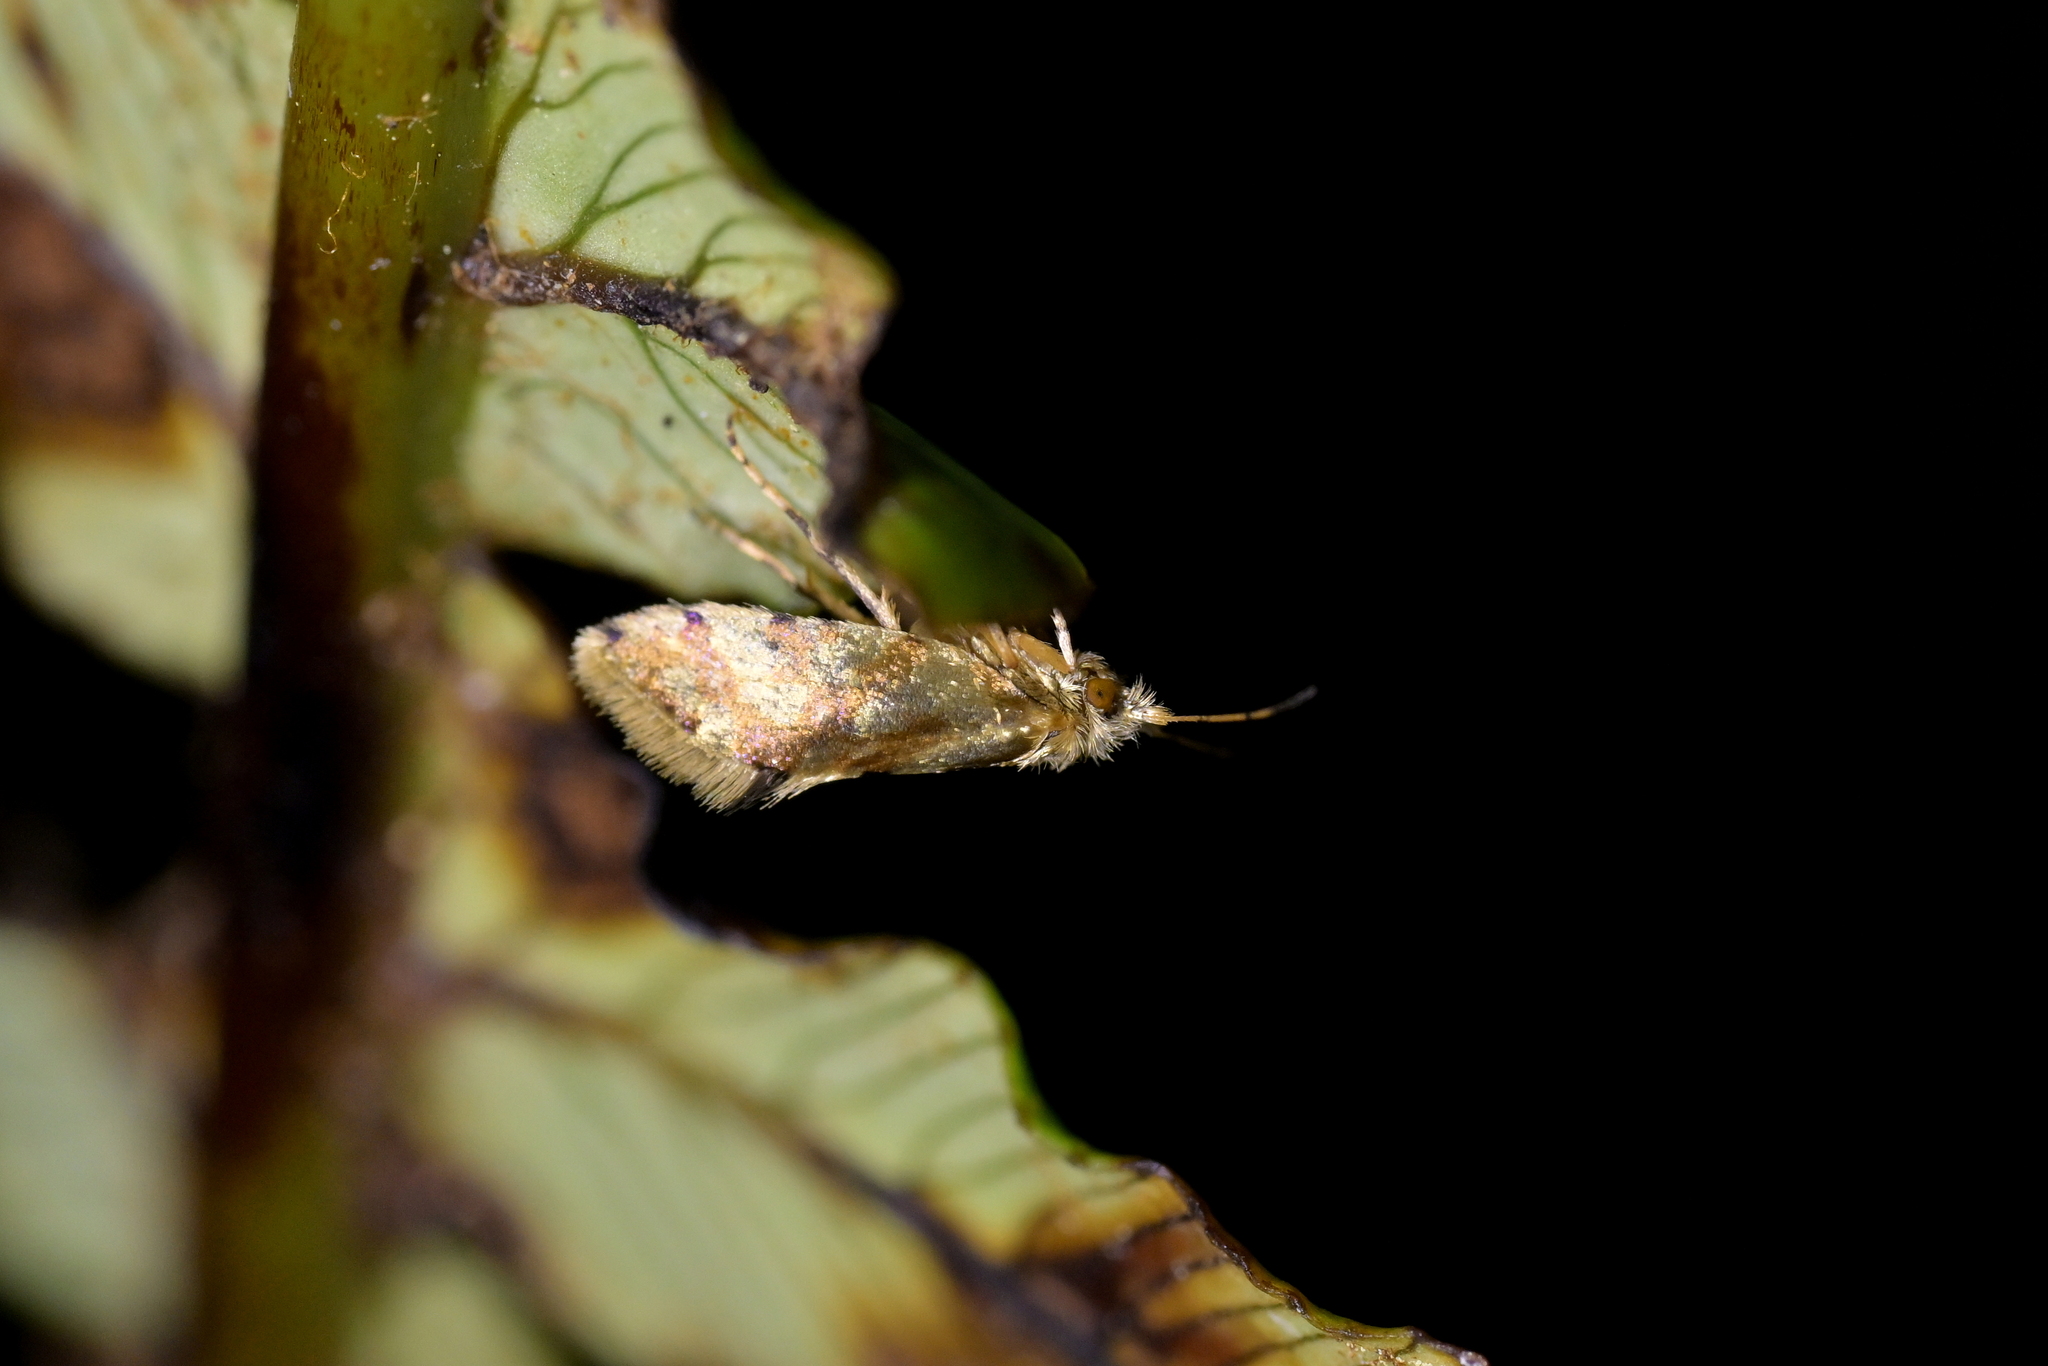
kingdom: Animalia
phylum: Arthropoda
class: Insecta
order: Lepidoptera
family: Micropterigidae
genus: Sabatinca
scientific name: Sabatinca chalcophanes
